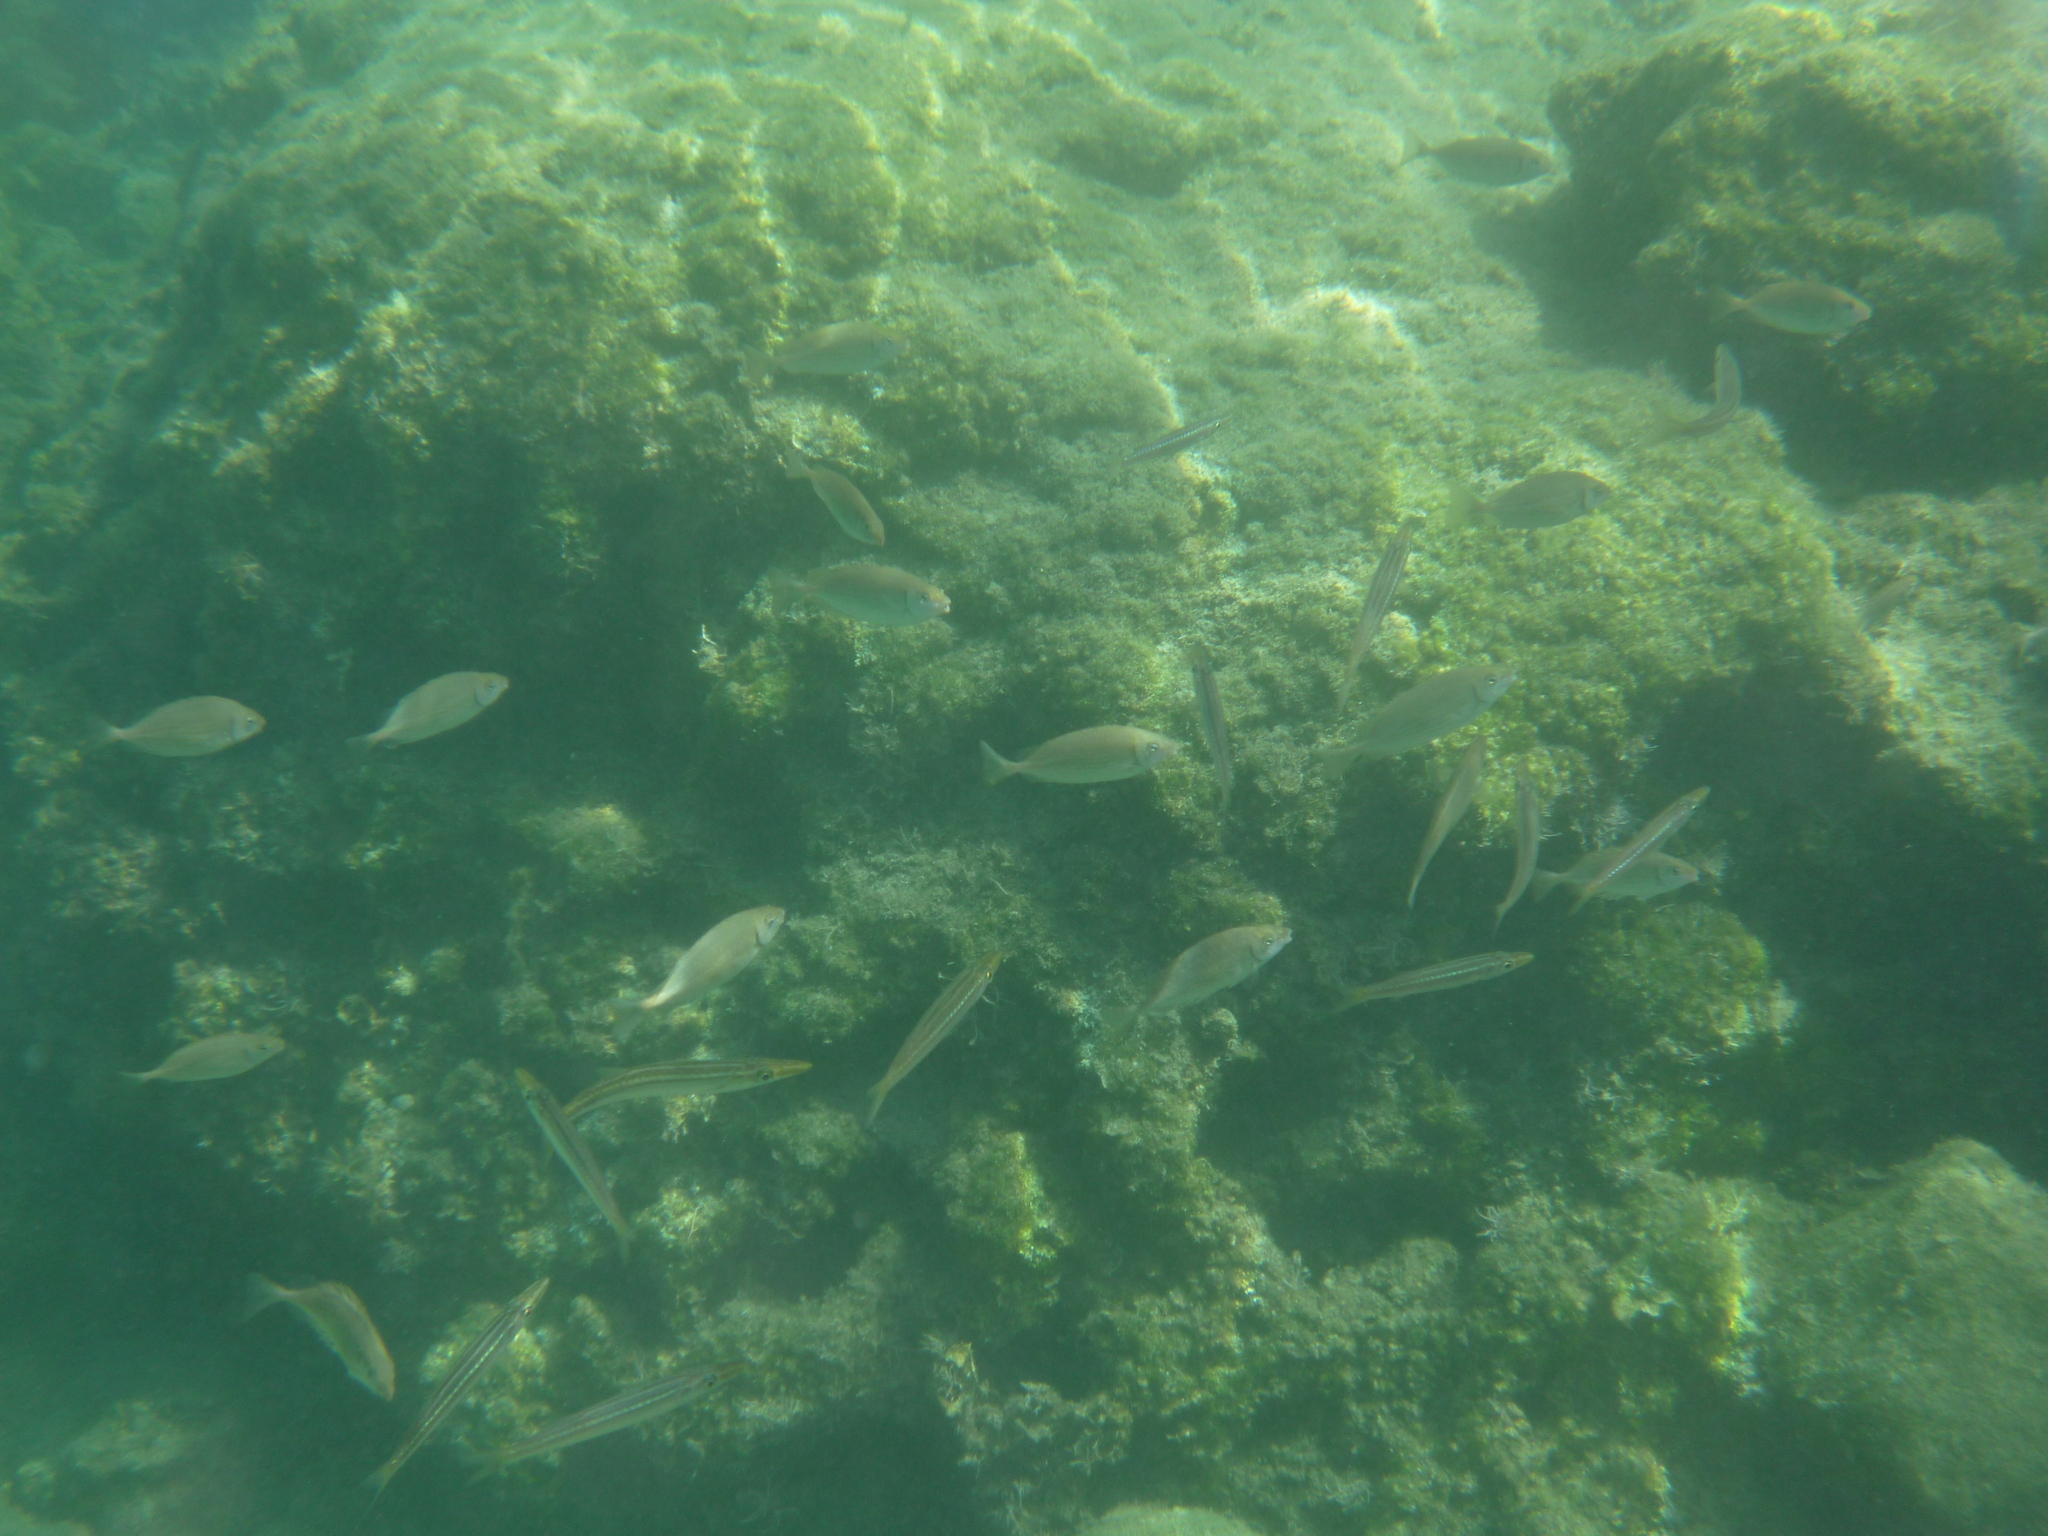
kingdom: Animalia
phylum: Chordata
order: Perciformes
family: Sphyraenidae
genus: Sphyraena
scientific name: Sphyraena
